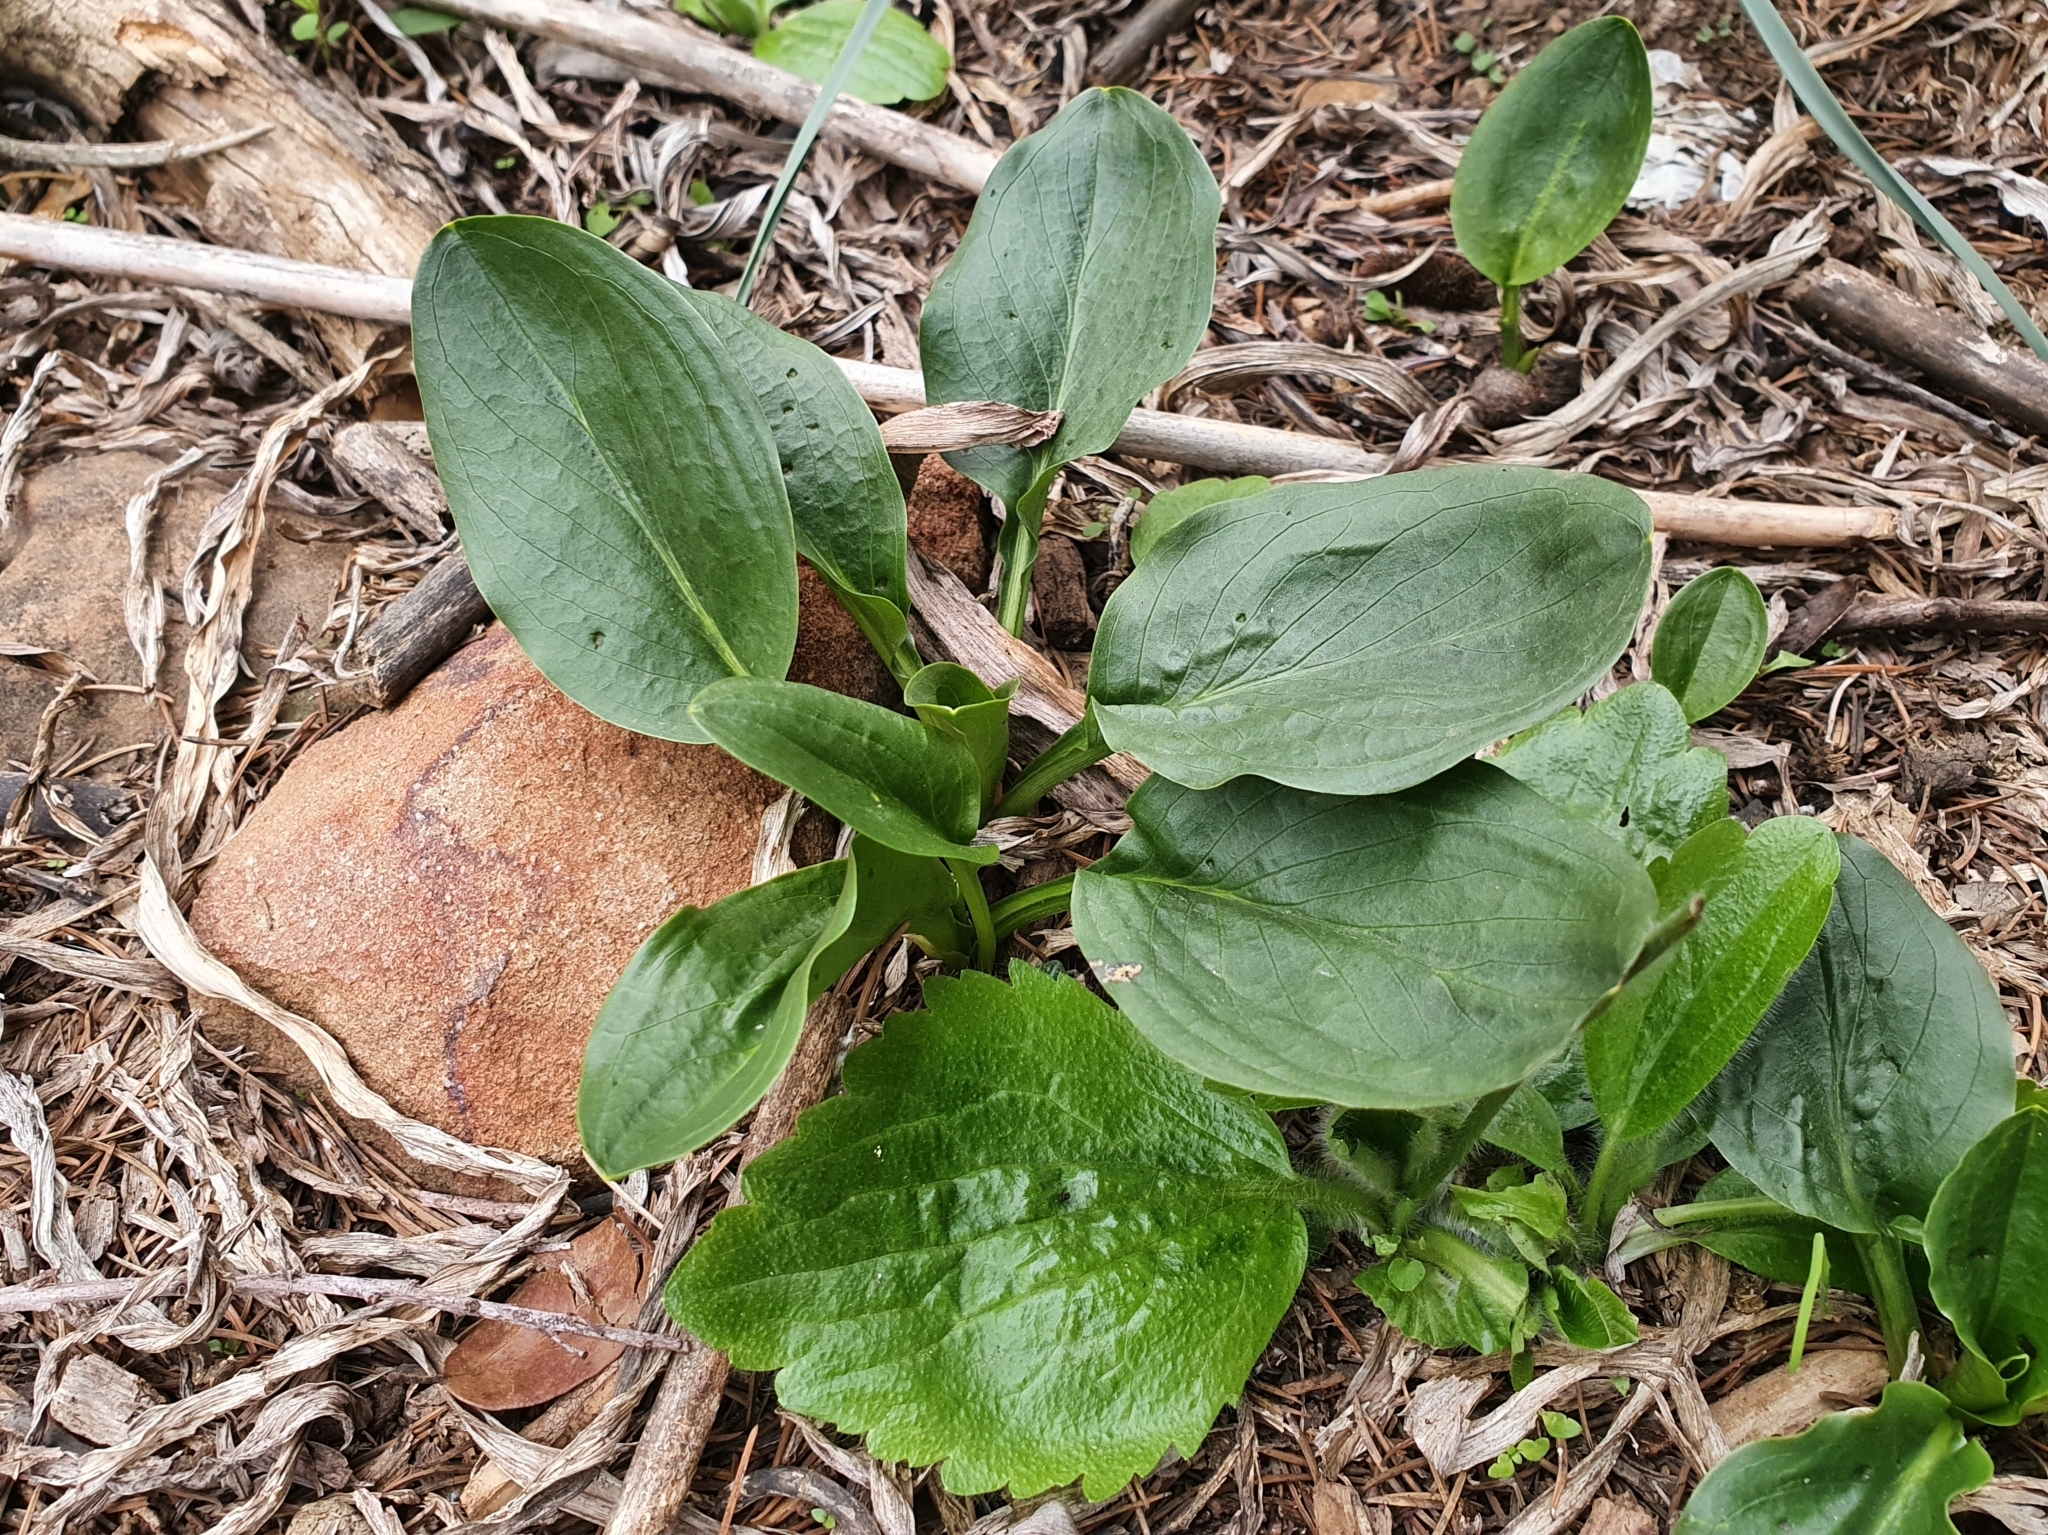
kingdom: Plantae
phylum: Tracheophyta
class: Liliopsida
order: Alismatales
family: Araceae
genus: Biarum
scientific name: Biarum dispar
